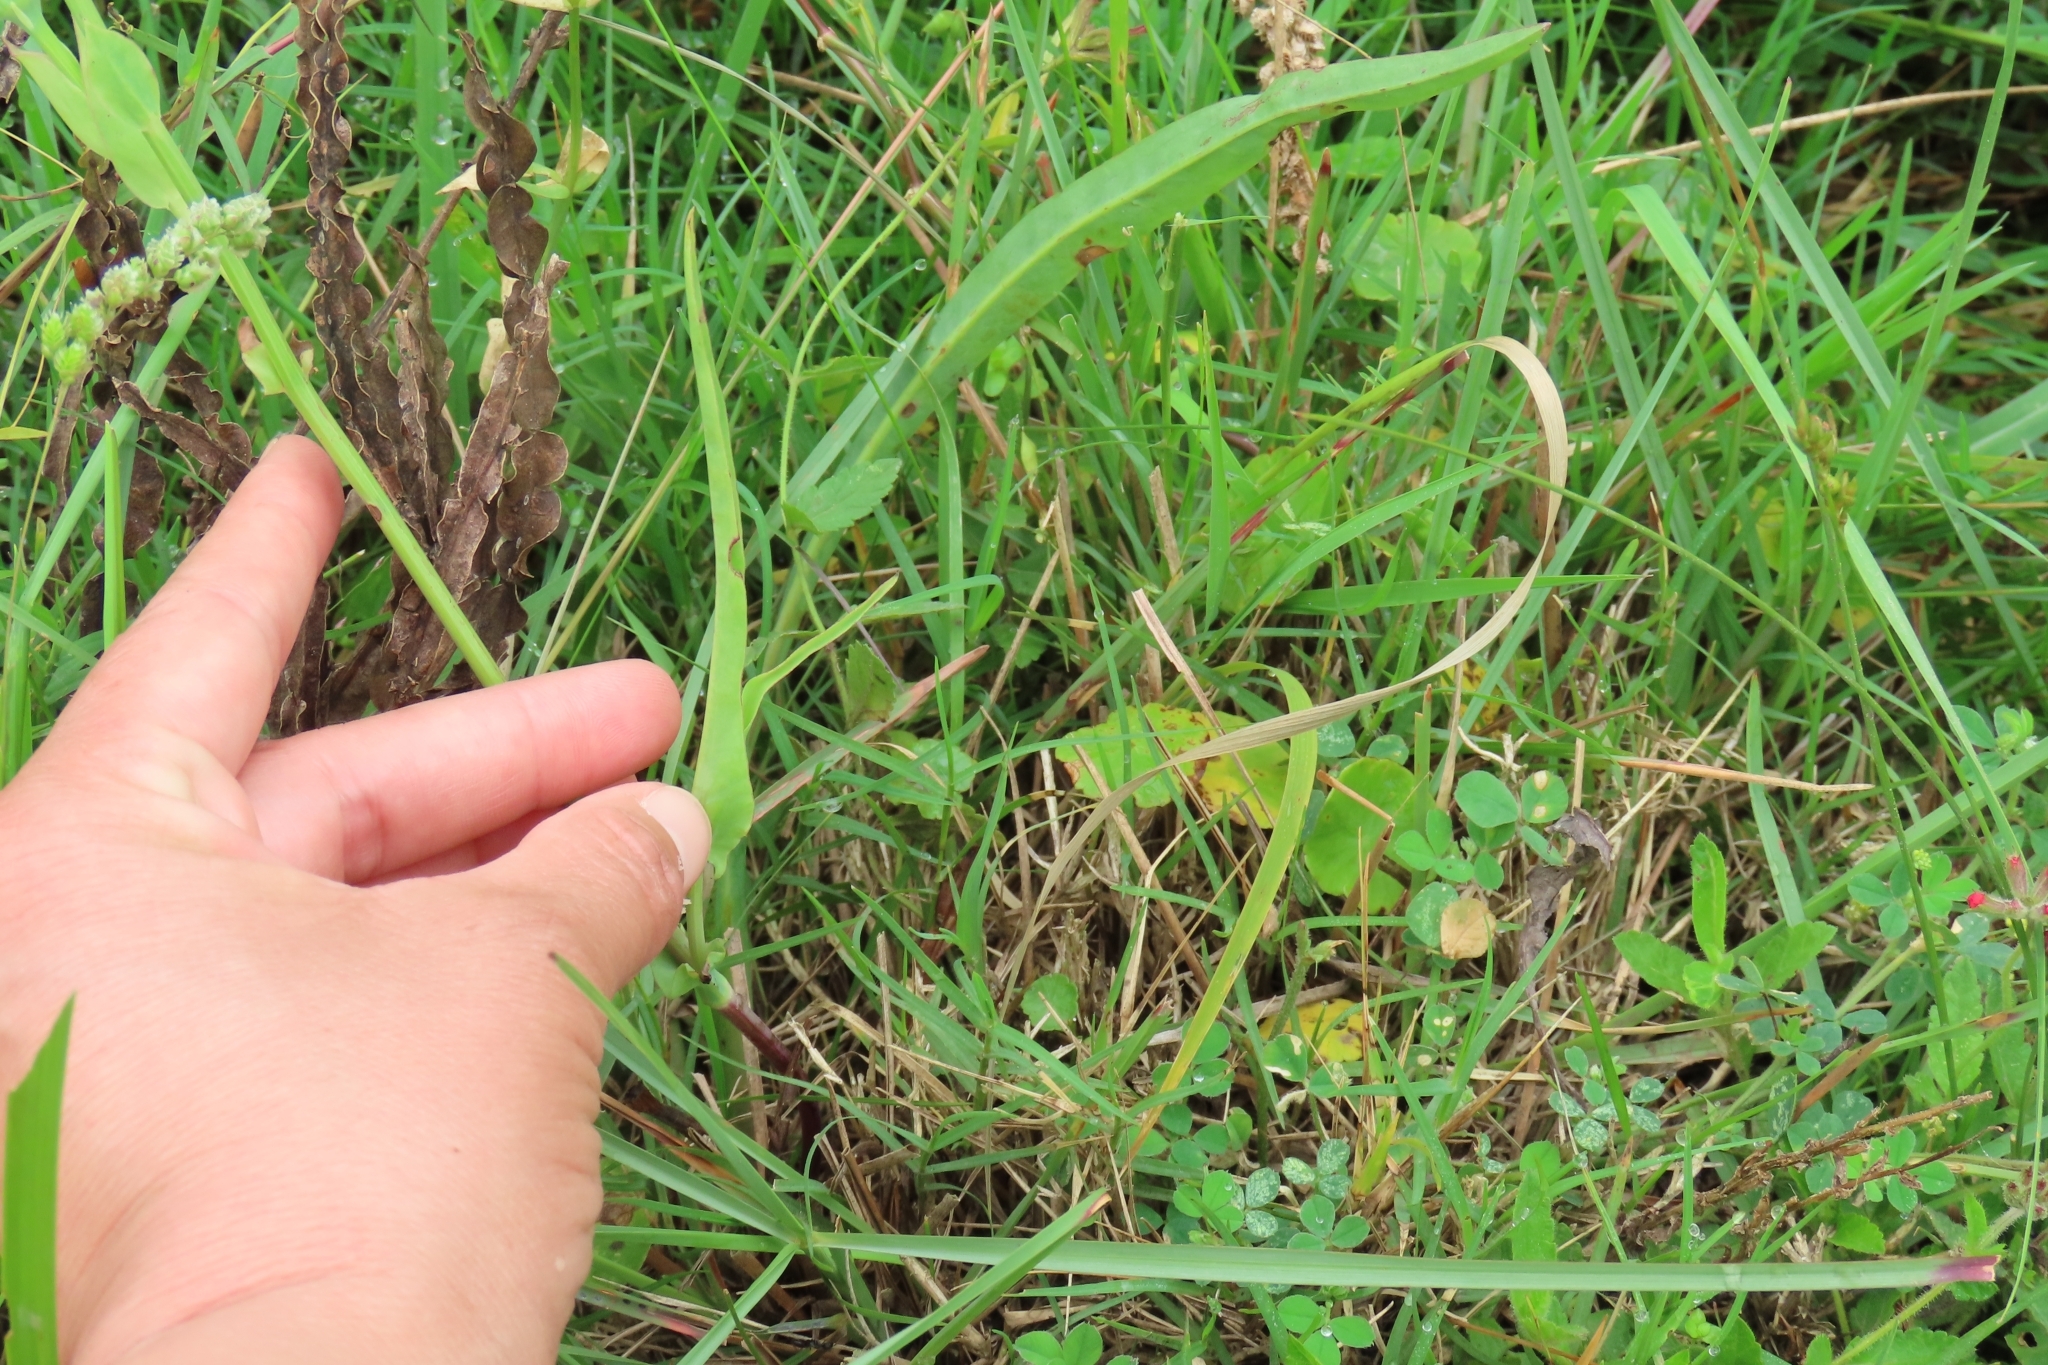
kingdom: Plantae
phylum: Tracheophyta
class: Magnoliopsida
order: Asterales
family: Asteraceae
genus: Picrosia
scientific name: Picrosia longifolia
